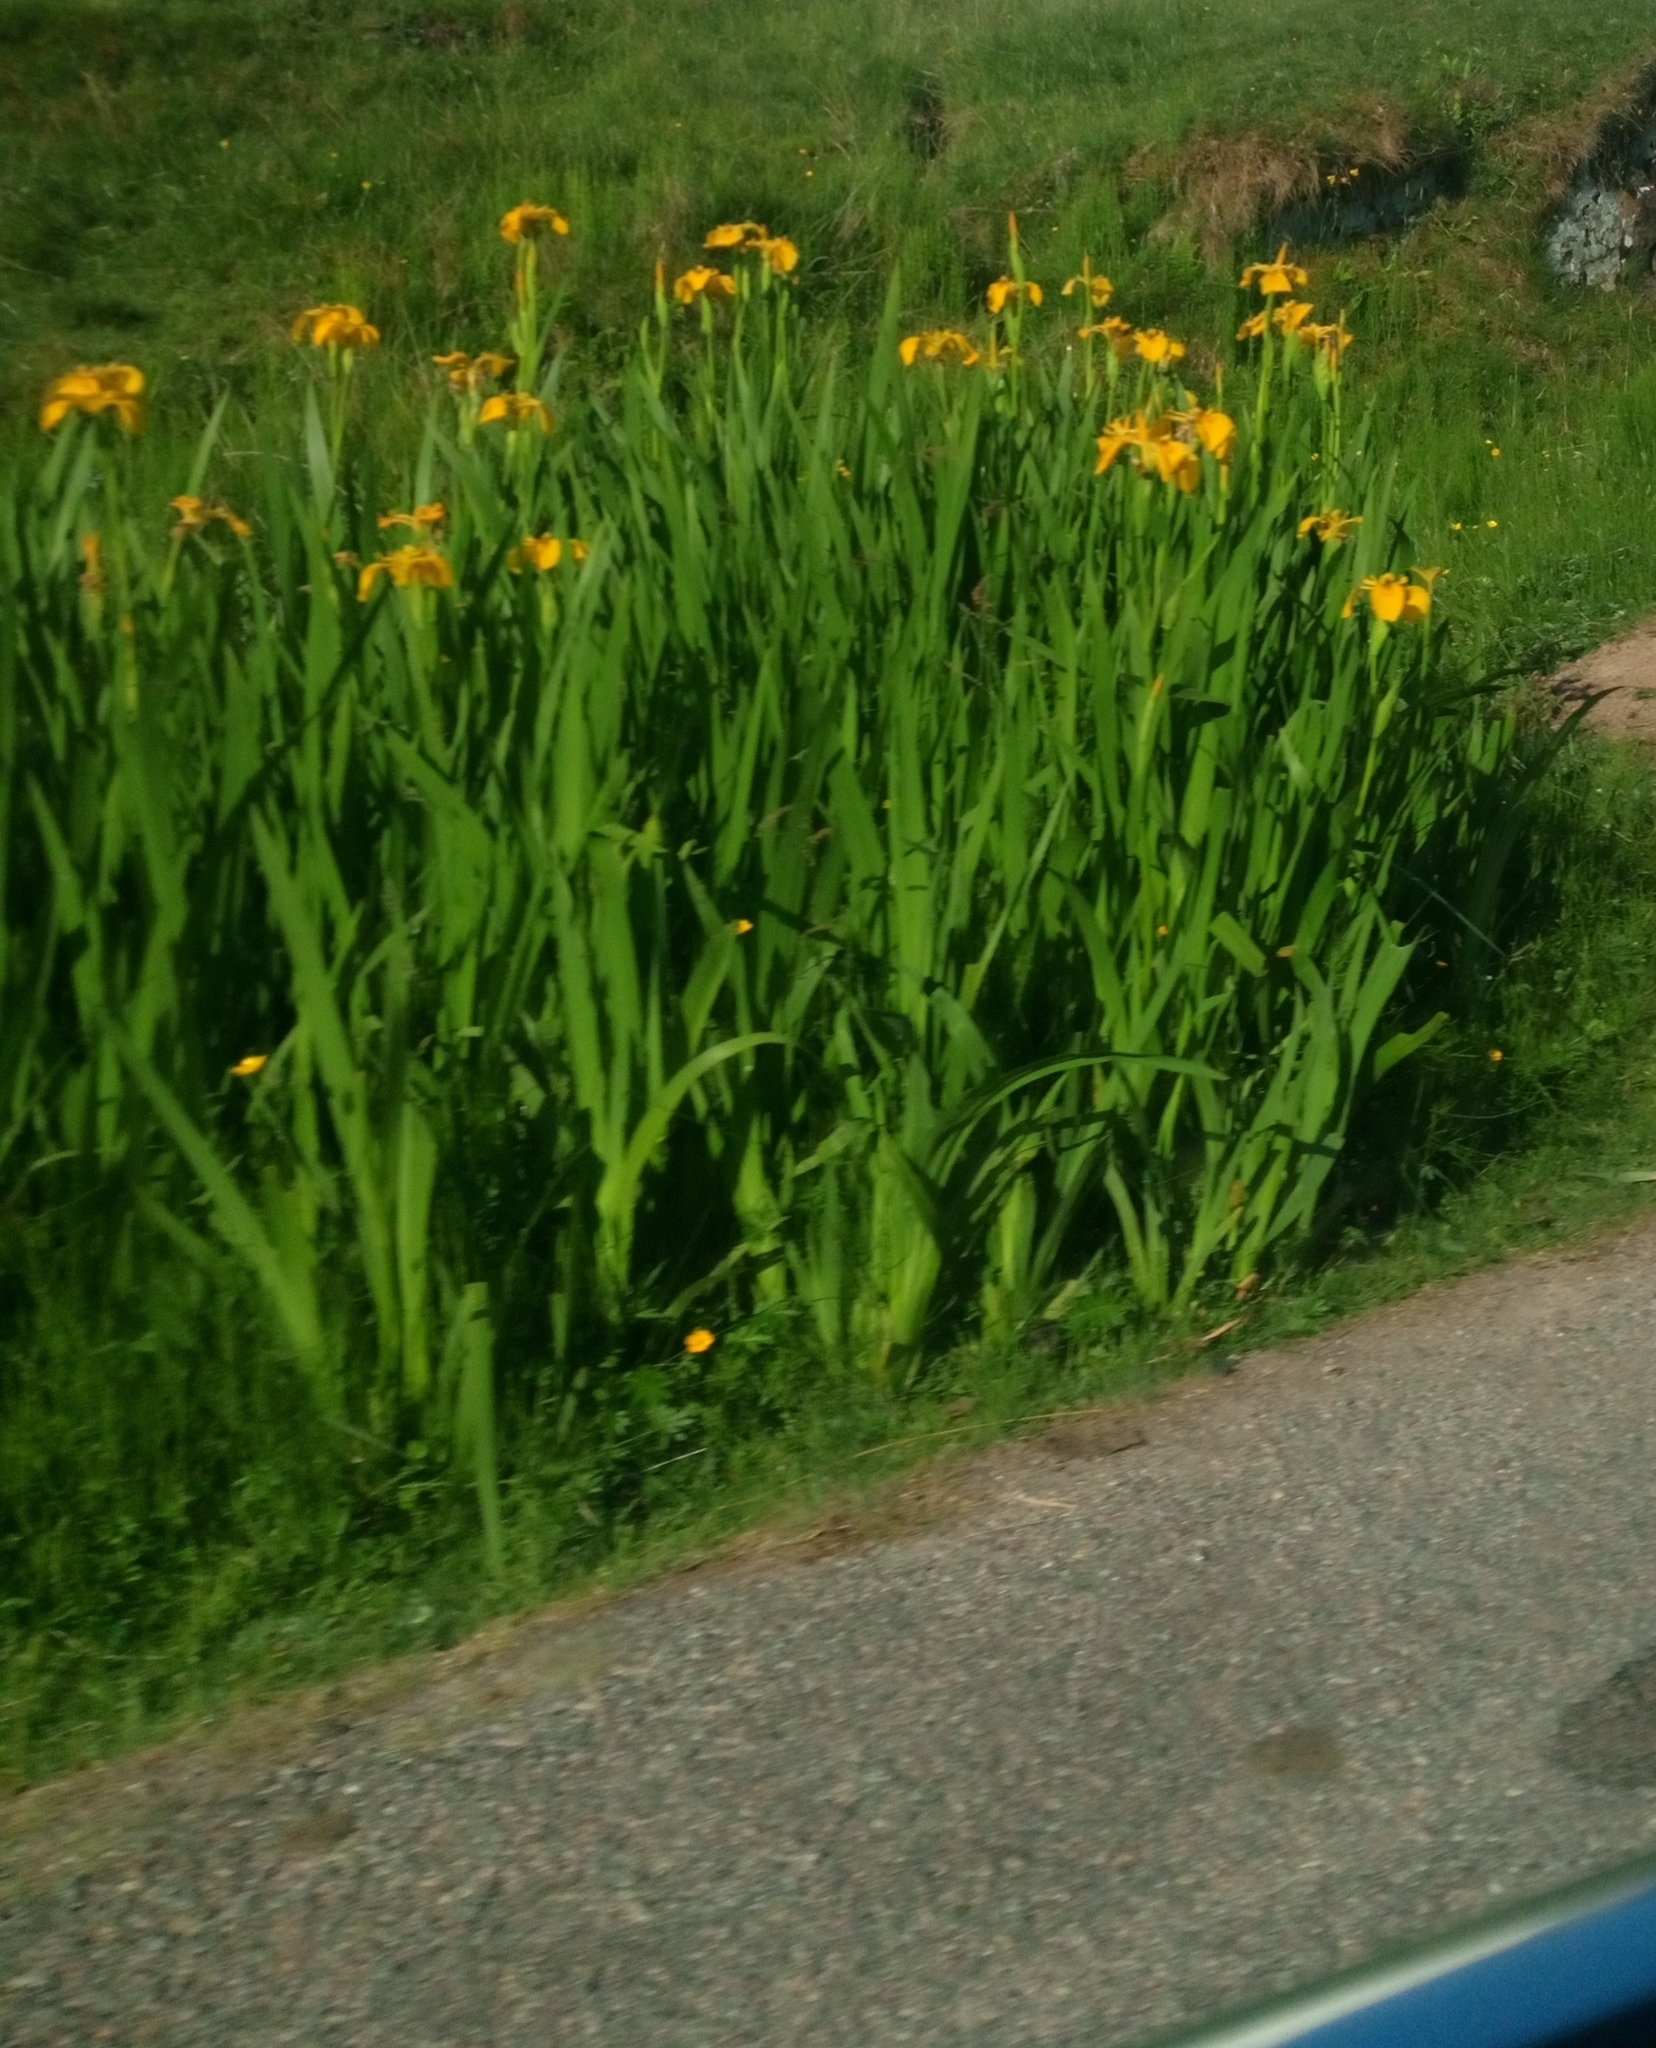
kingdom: Plantae
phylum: Tracheophyta
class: Liliopsida
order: Asparagales
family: Iridaceae
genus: Iris
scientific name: Iris pseudacorus
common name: Yellow flag
